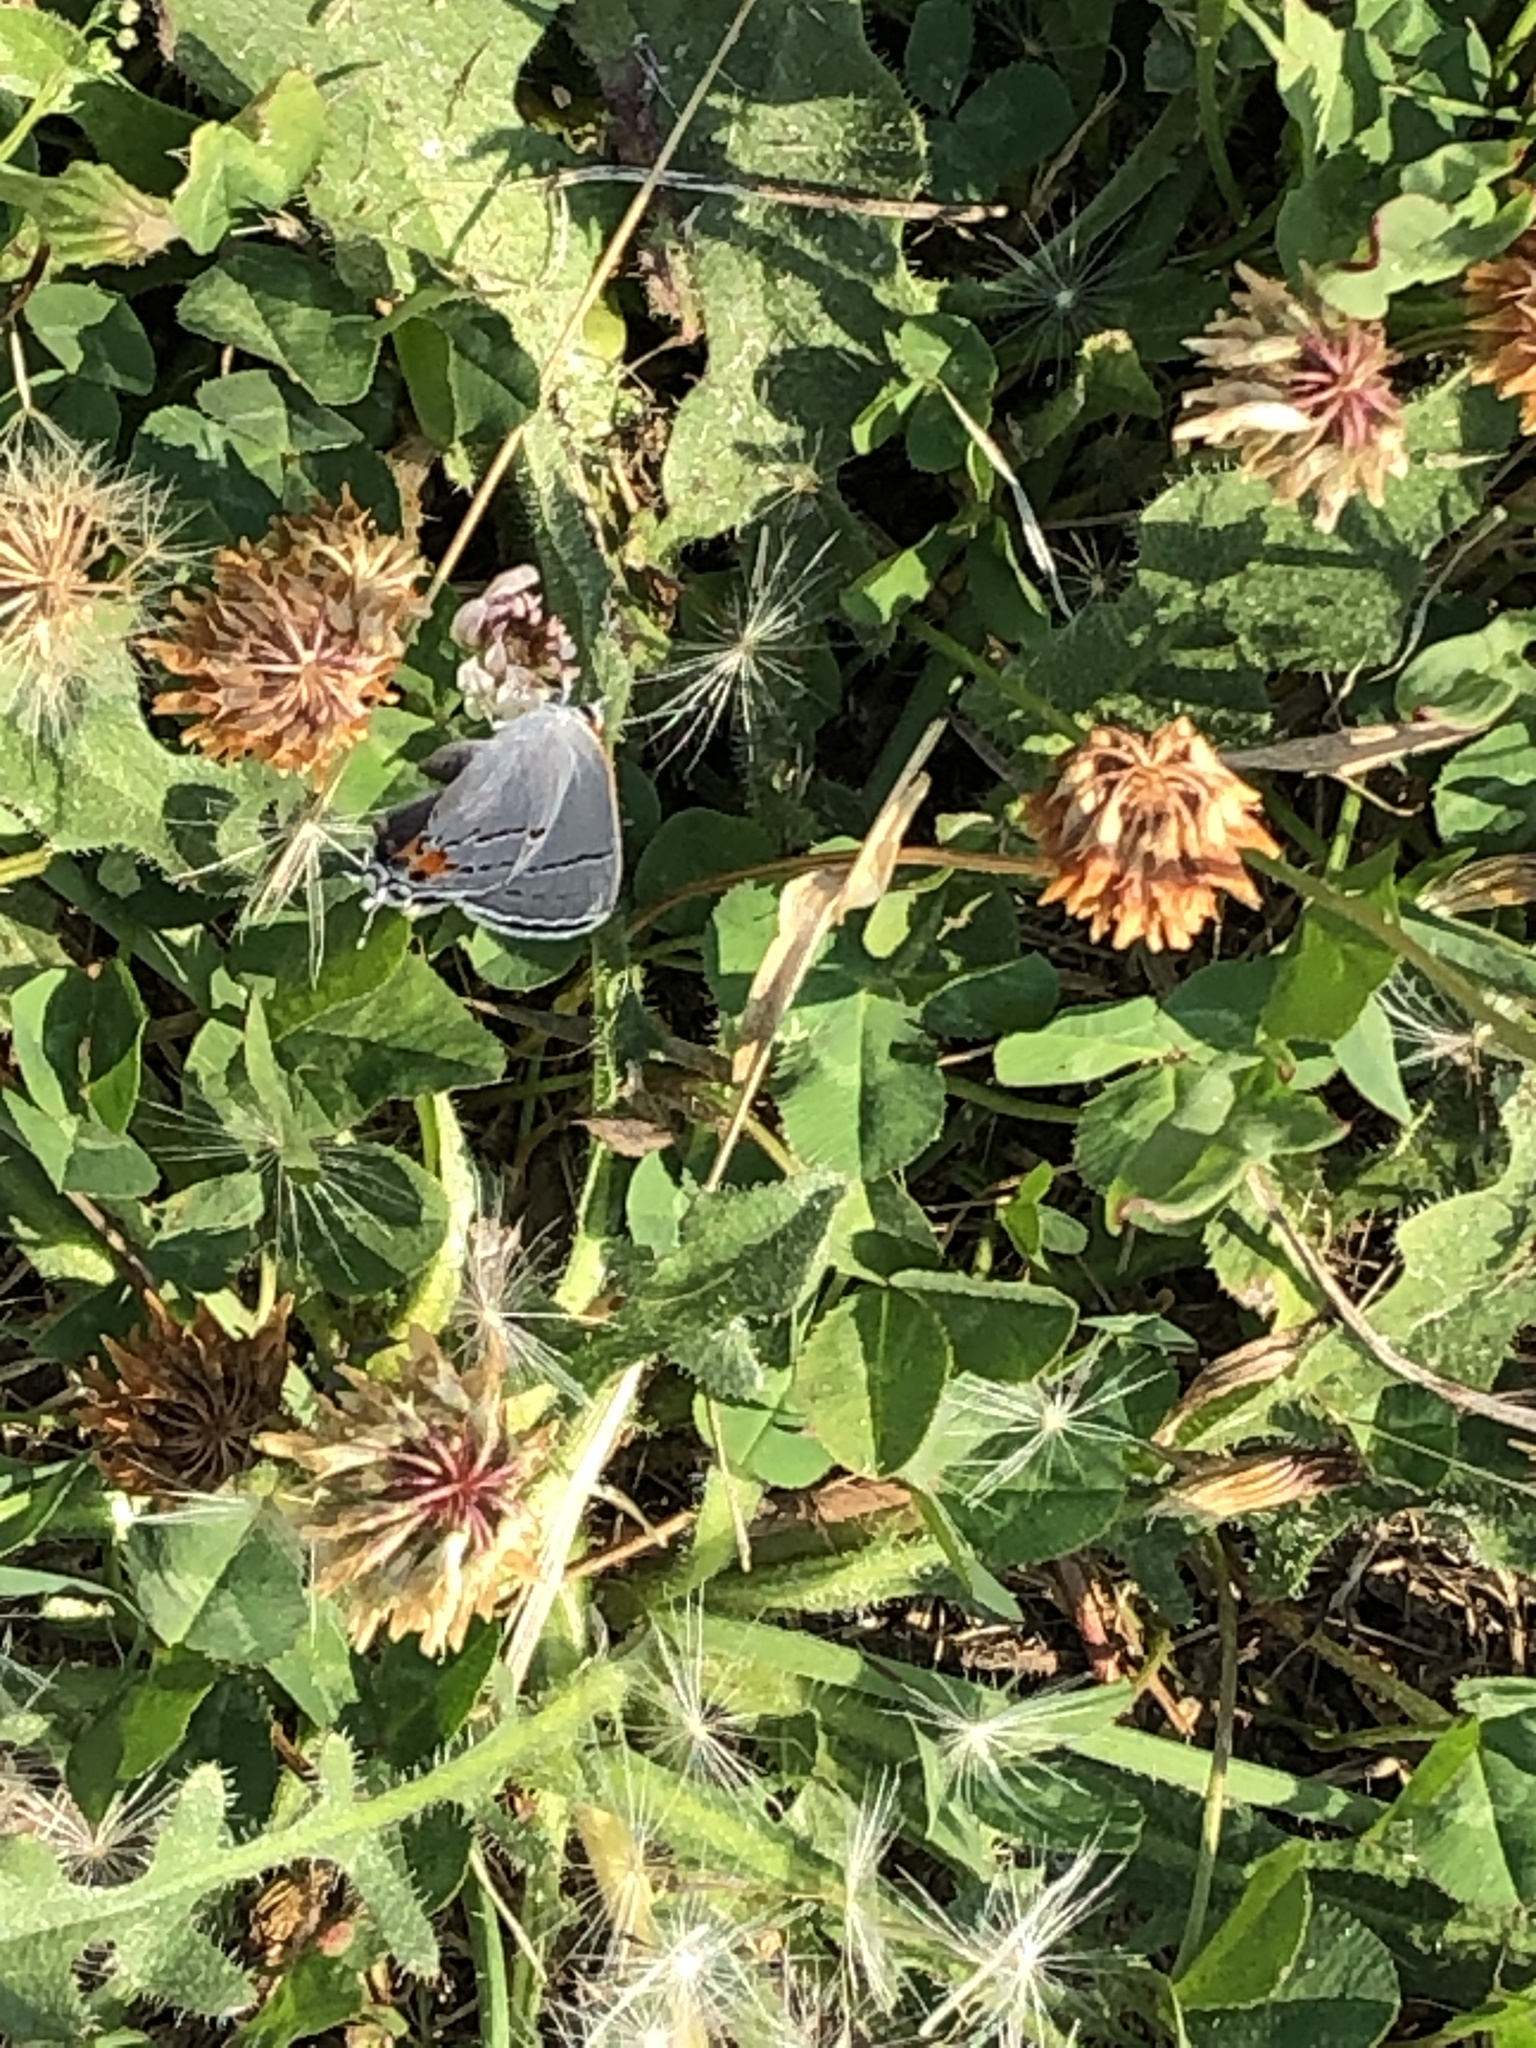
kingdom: Animalia
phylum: Arthropoda
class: Insecta
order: Lepidoptera
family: Lycaenidae
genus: Strymon
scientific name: Strymon melinus
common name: Gray hairstreak
